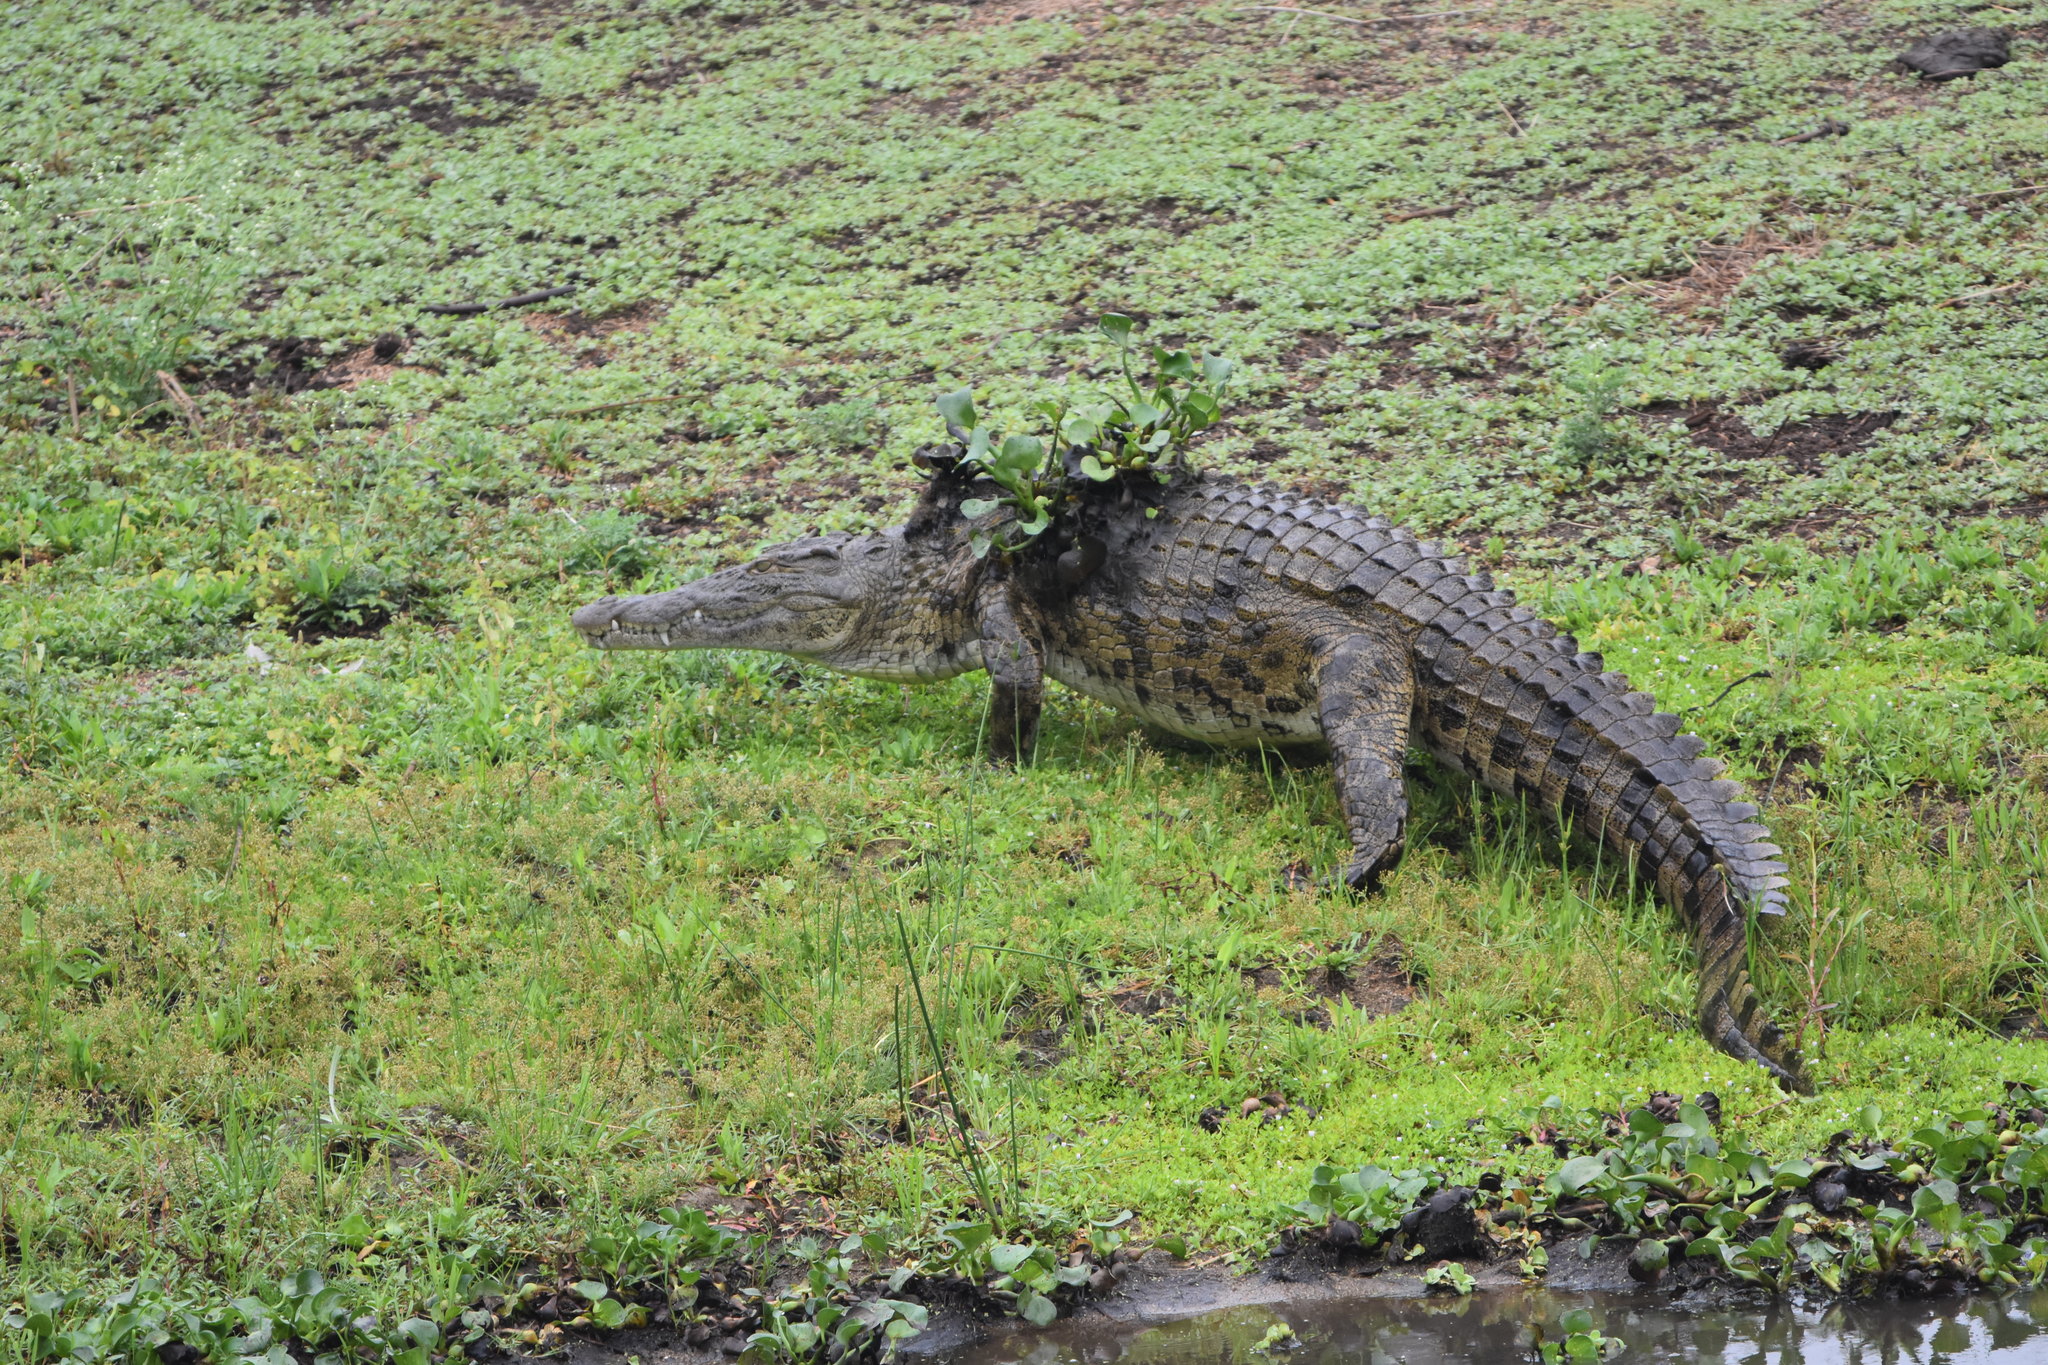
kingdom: Animalia
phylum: Chordata
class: Crocodylia
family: Crocodylidae
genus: Crocodylus
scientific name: Crocodylus niloticus
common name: Nile crocodile
